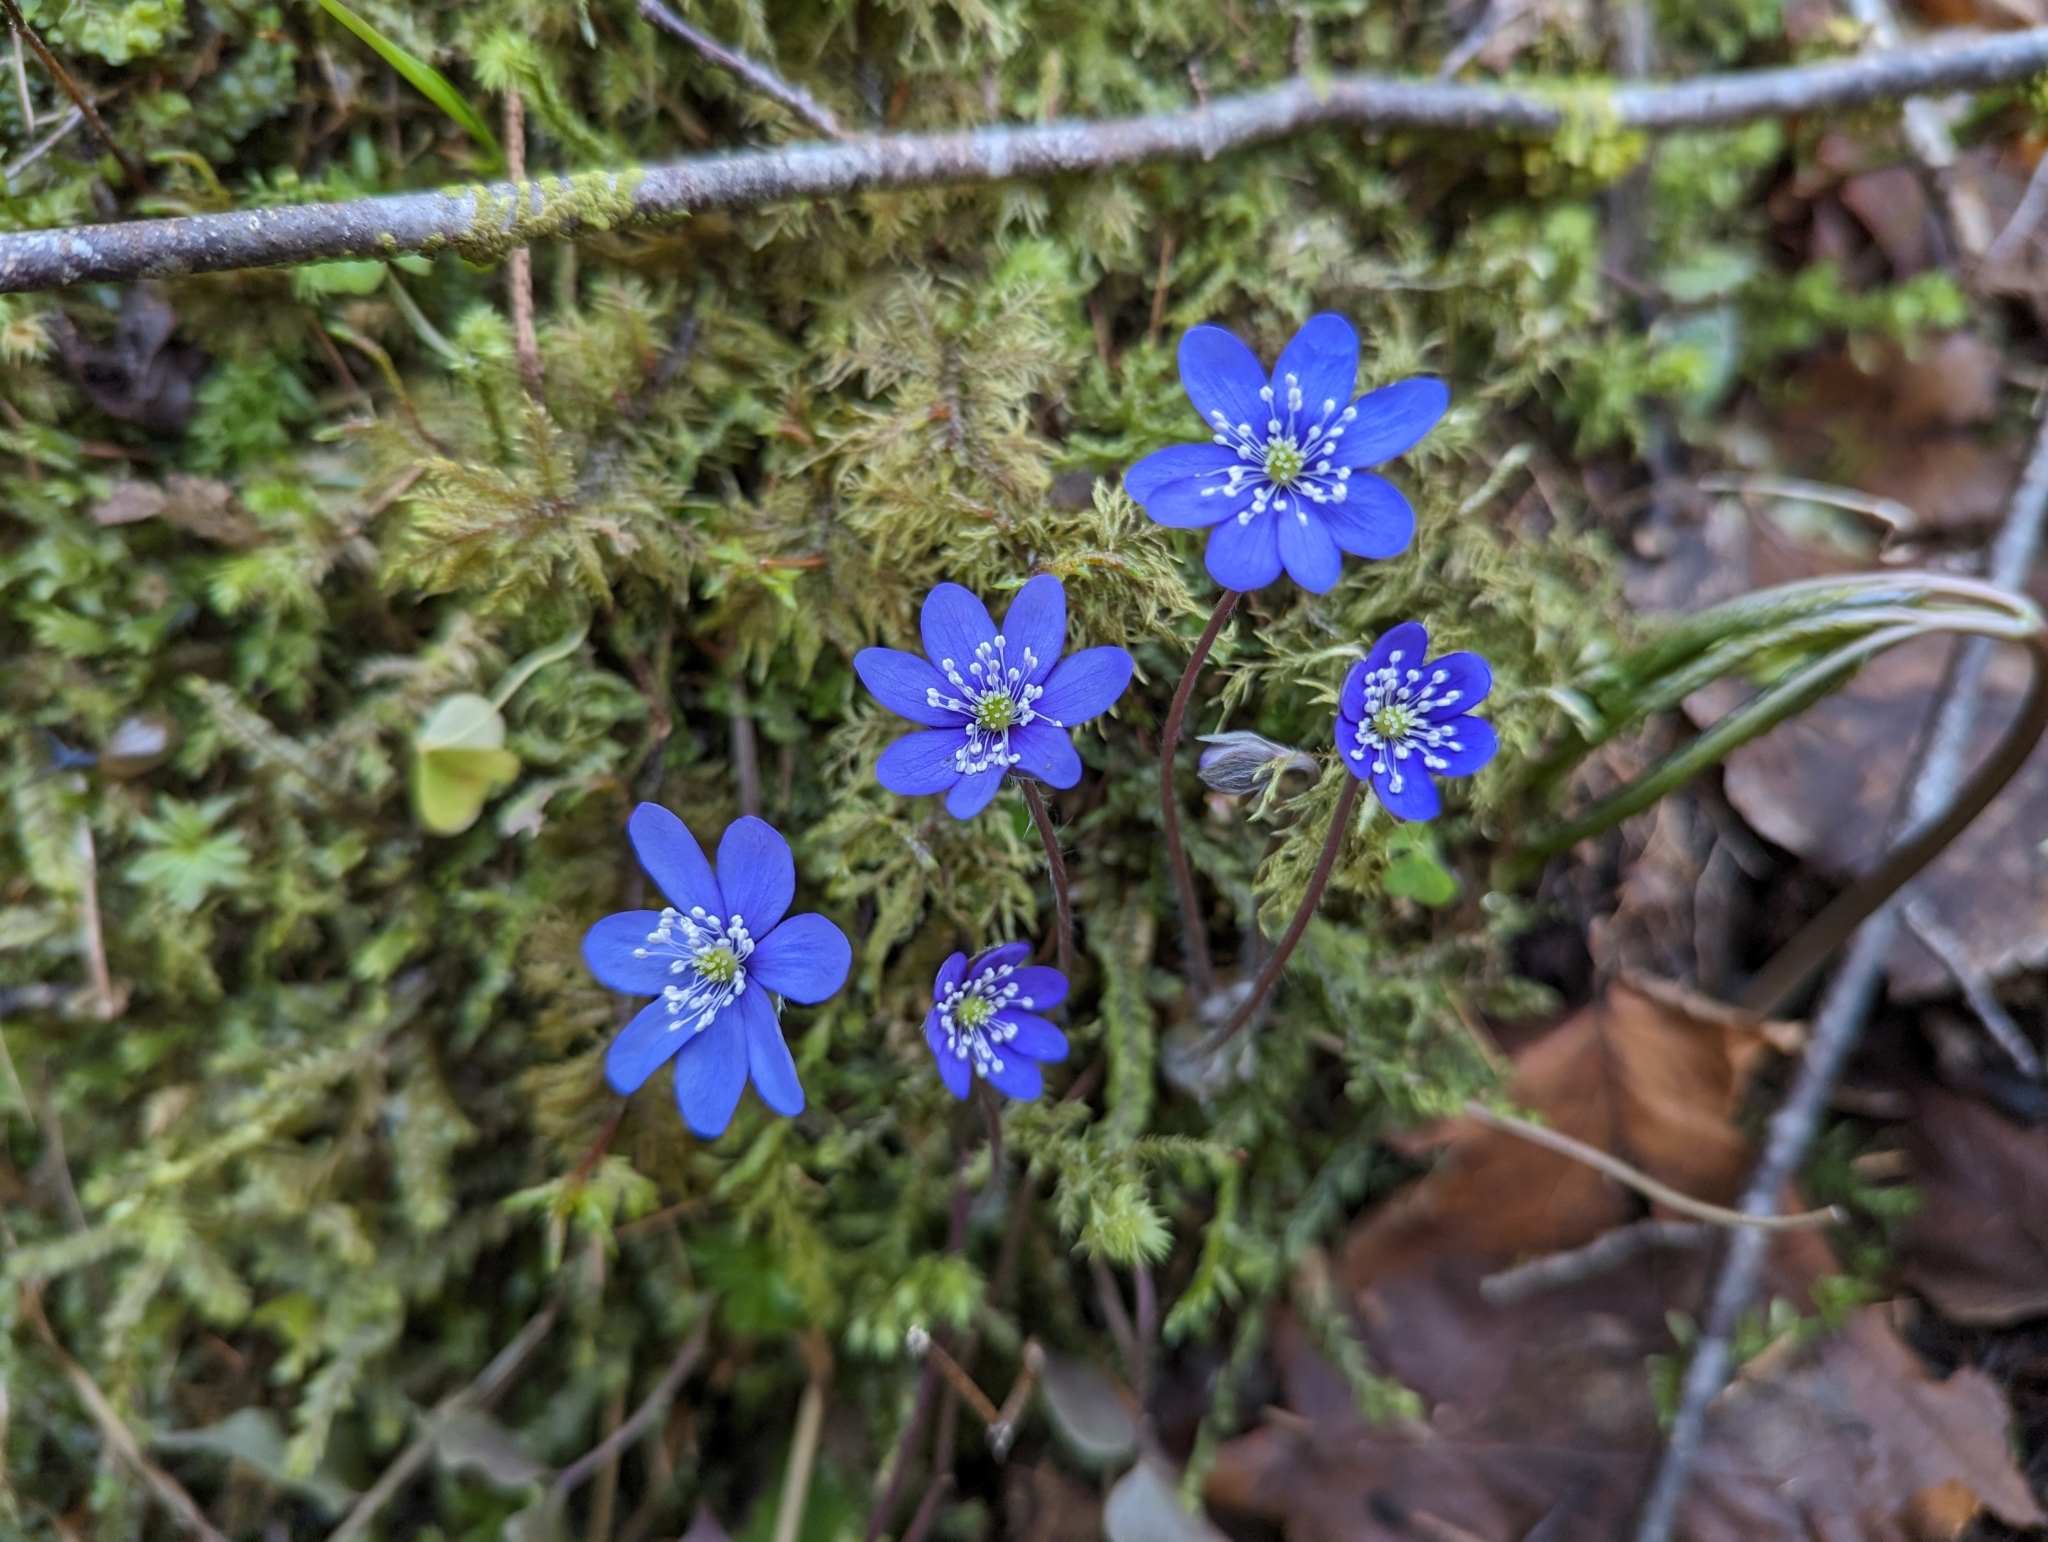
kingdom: Plantae
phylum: Tracheophyta
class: Magnoliopsida
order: Ranunculales
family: Ranunculaceae
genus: Hepatica
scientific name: Hepatica nobilis
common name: Liverleaf
